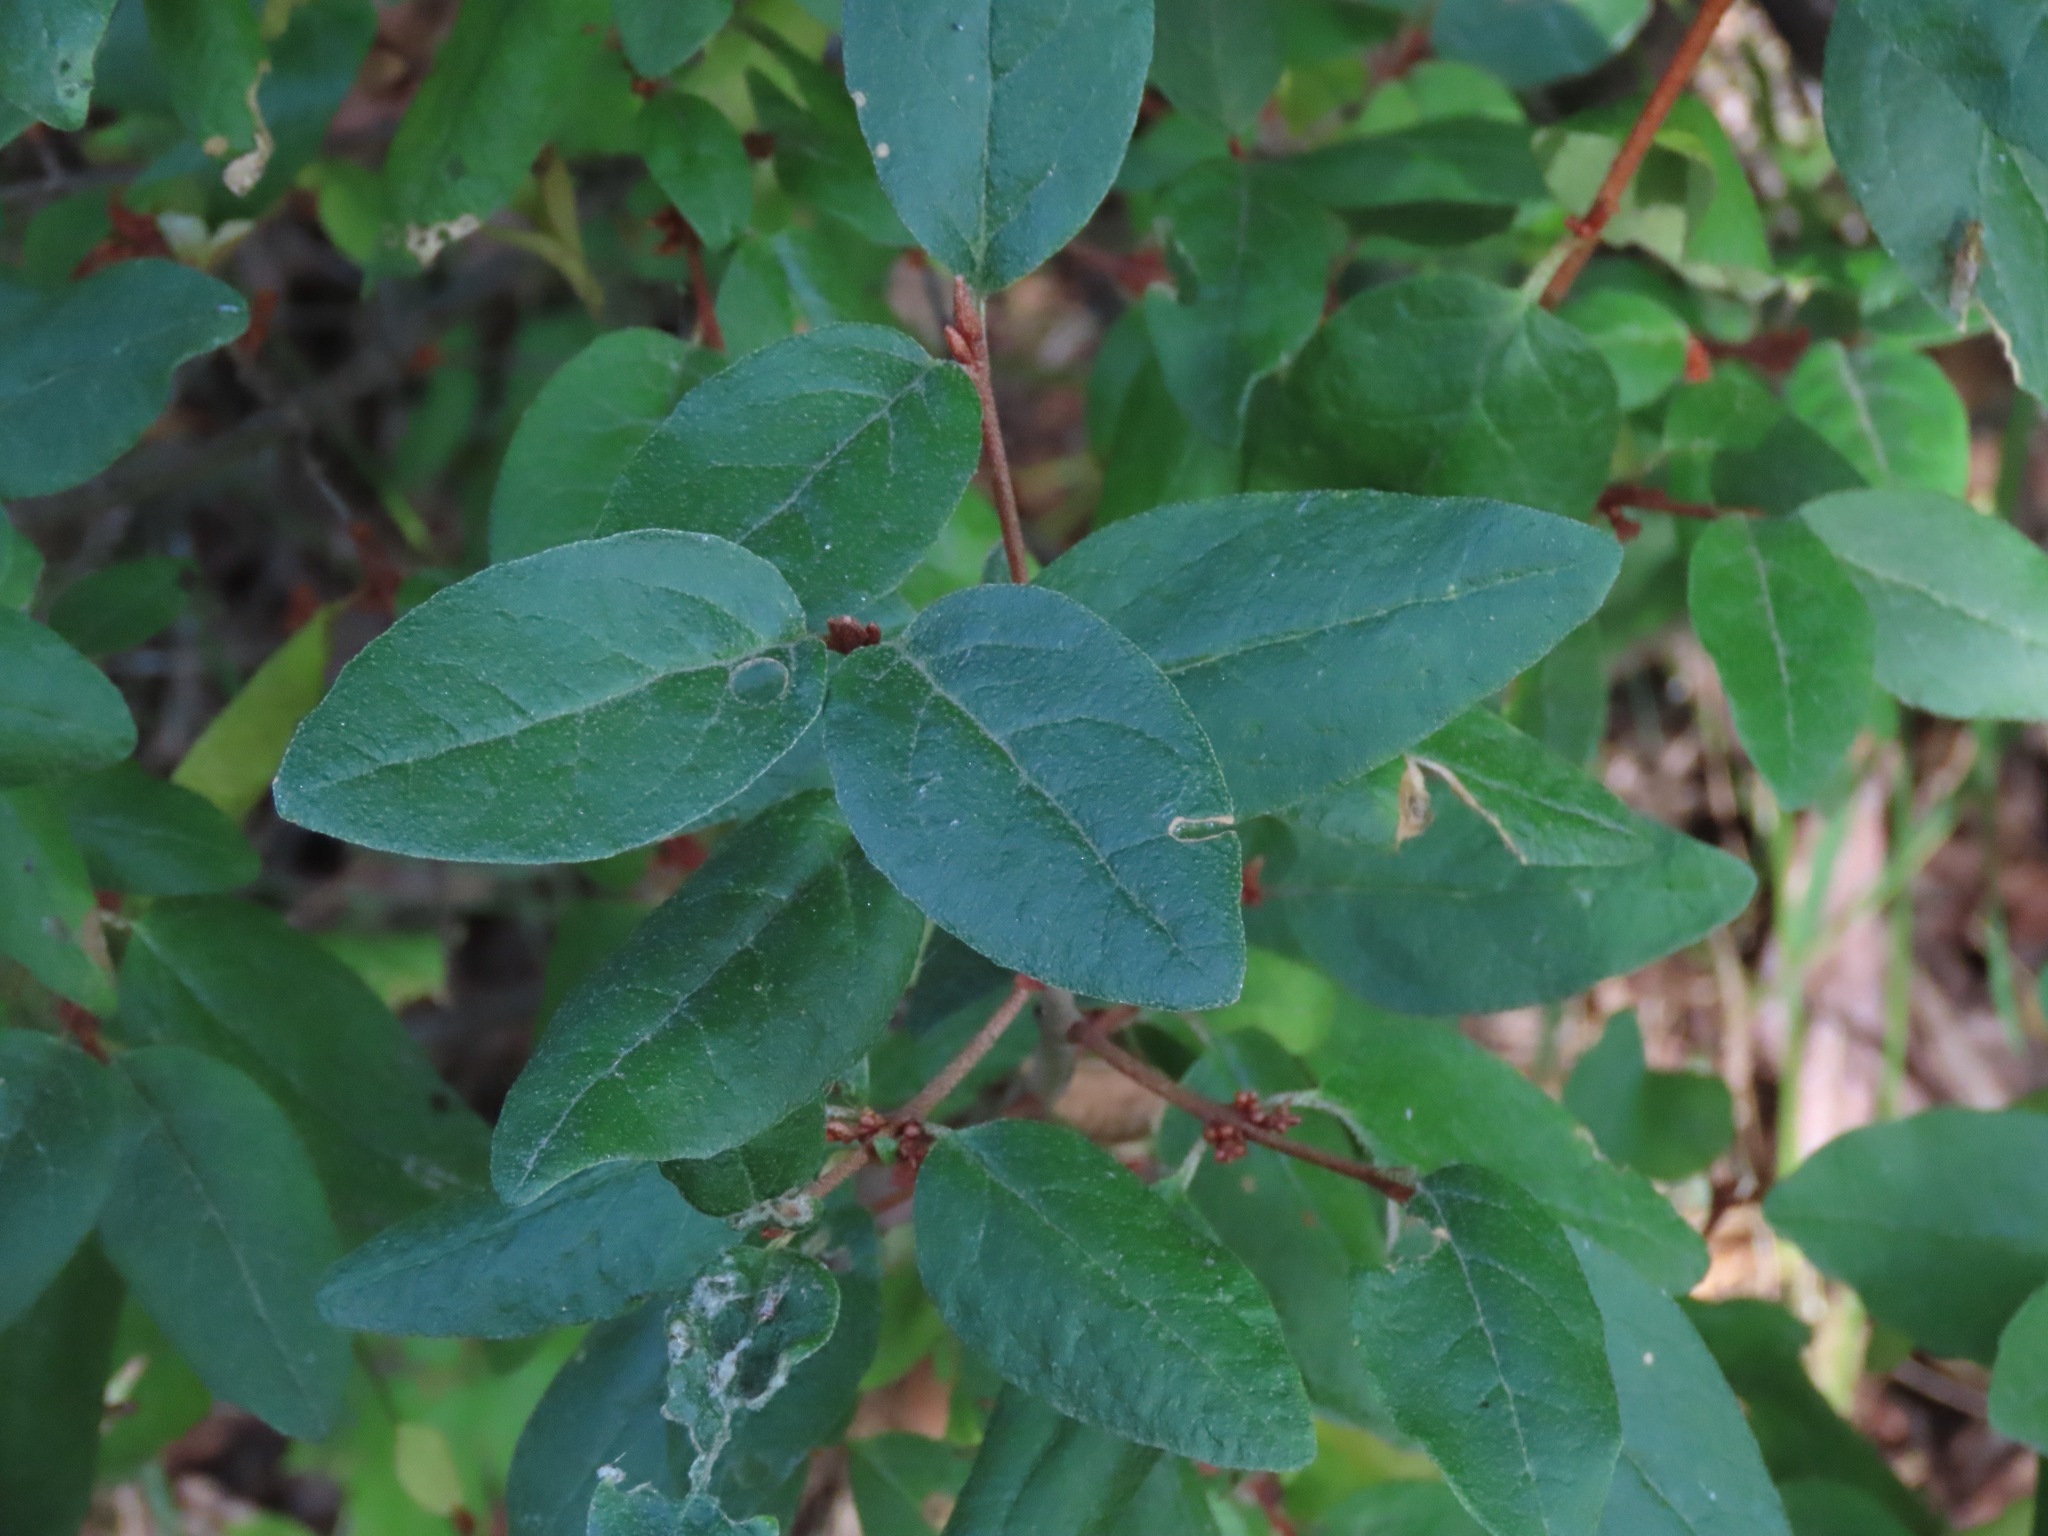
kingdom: Plantae
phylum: Tracheophyta
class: Magnoliopsida
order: Rosales
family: Elaeagnaceae
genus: Shepherdia
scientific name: Shepherdia canadensis
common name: Soapberry
